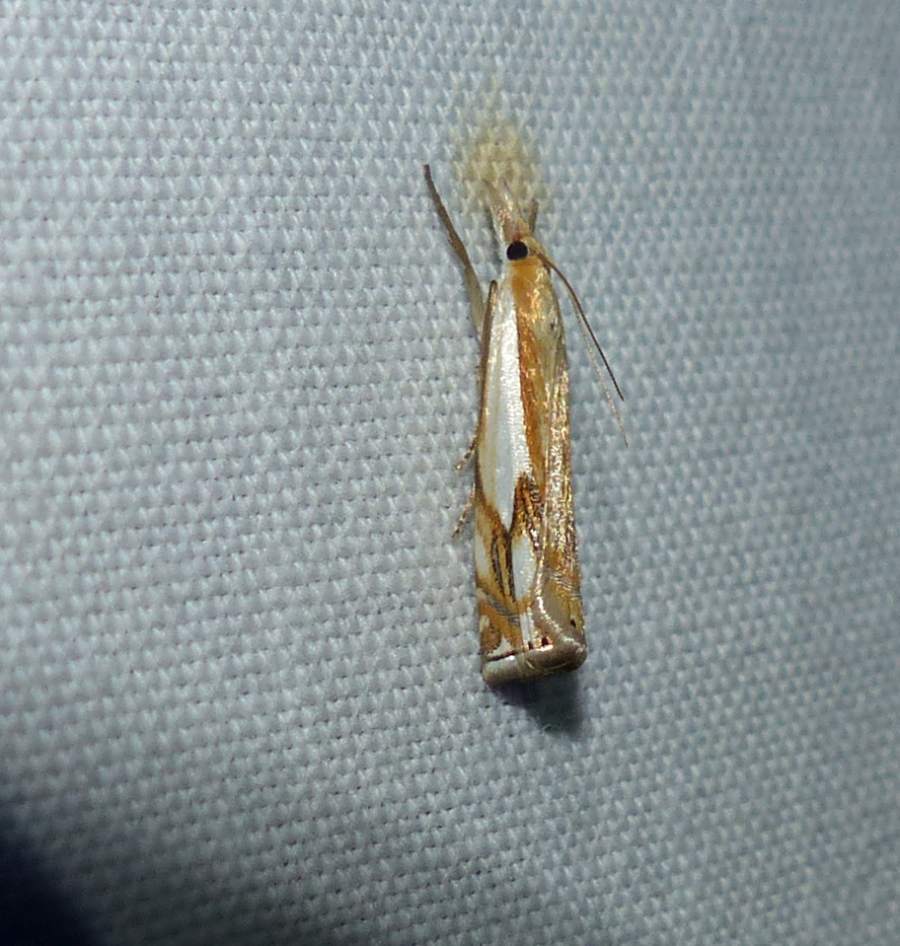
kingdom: Animalia
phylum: Arthropoda
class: Insecta
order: Lepidoptera
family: Crambidae
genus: Crambus
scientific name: Crambus agitatellus
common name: Double-banded grass-veneer
